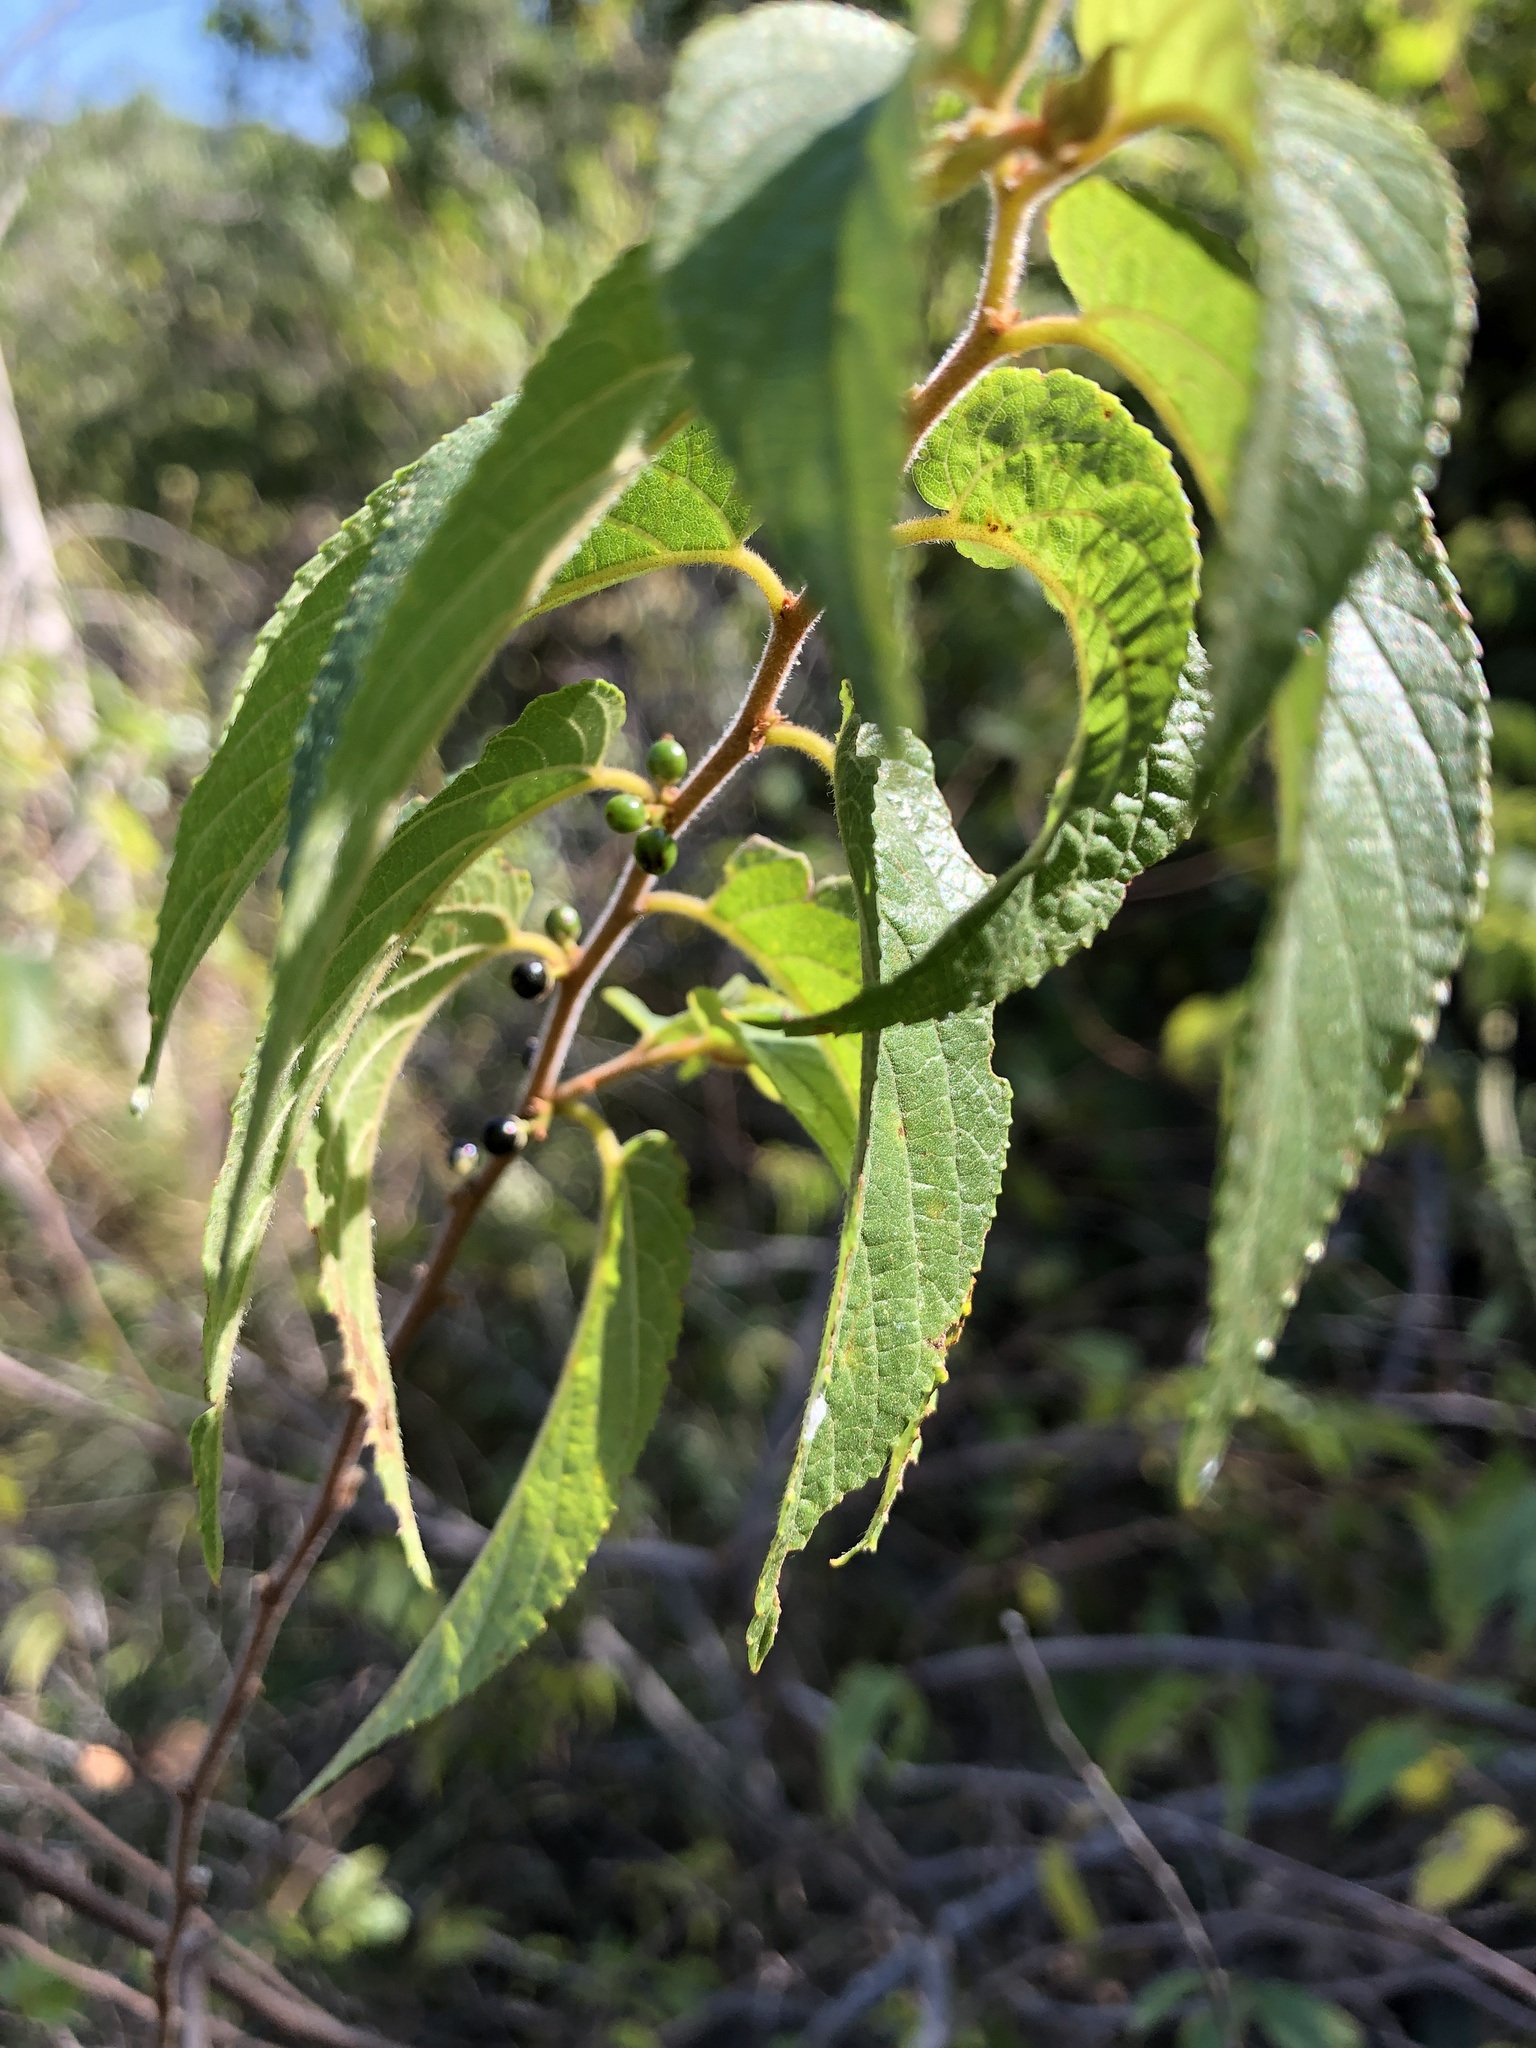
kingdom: Plantae
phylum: Tracheophyta
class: Magnoliopsida
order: Rosales
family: Cannabaceae
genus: Trema
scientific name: Trema tomentosum
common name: Peach-leaf-poisonbush
